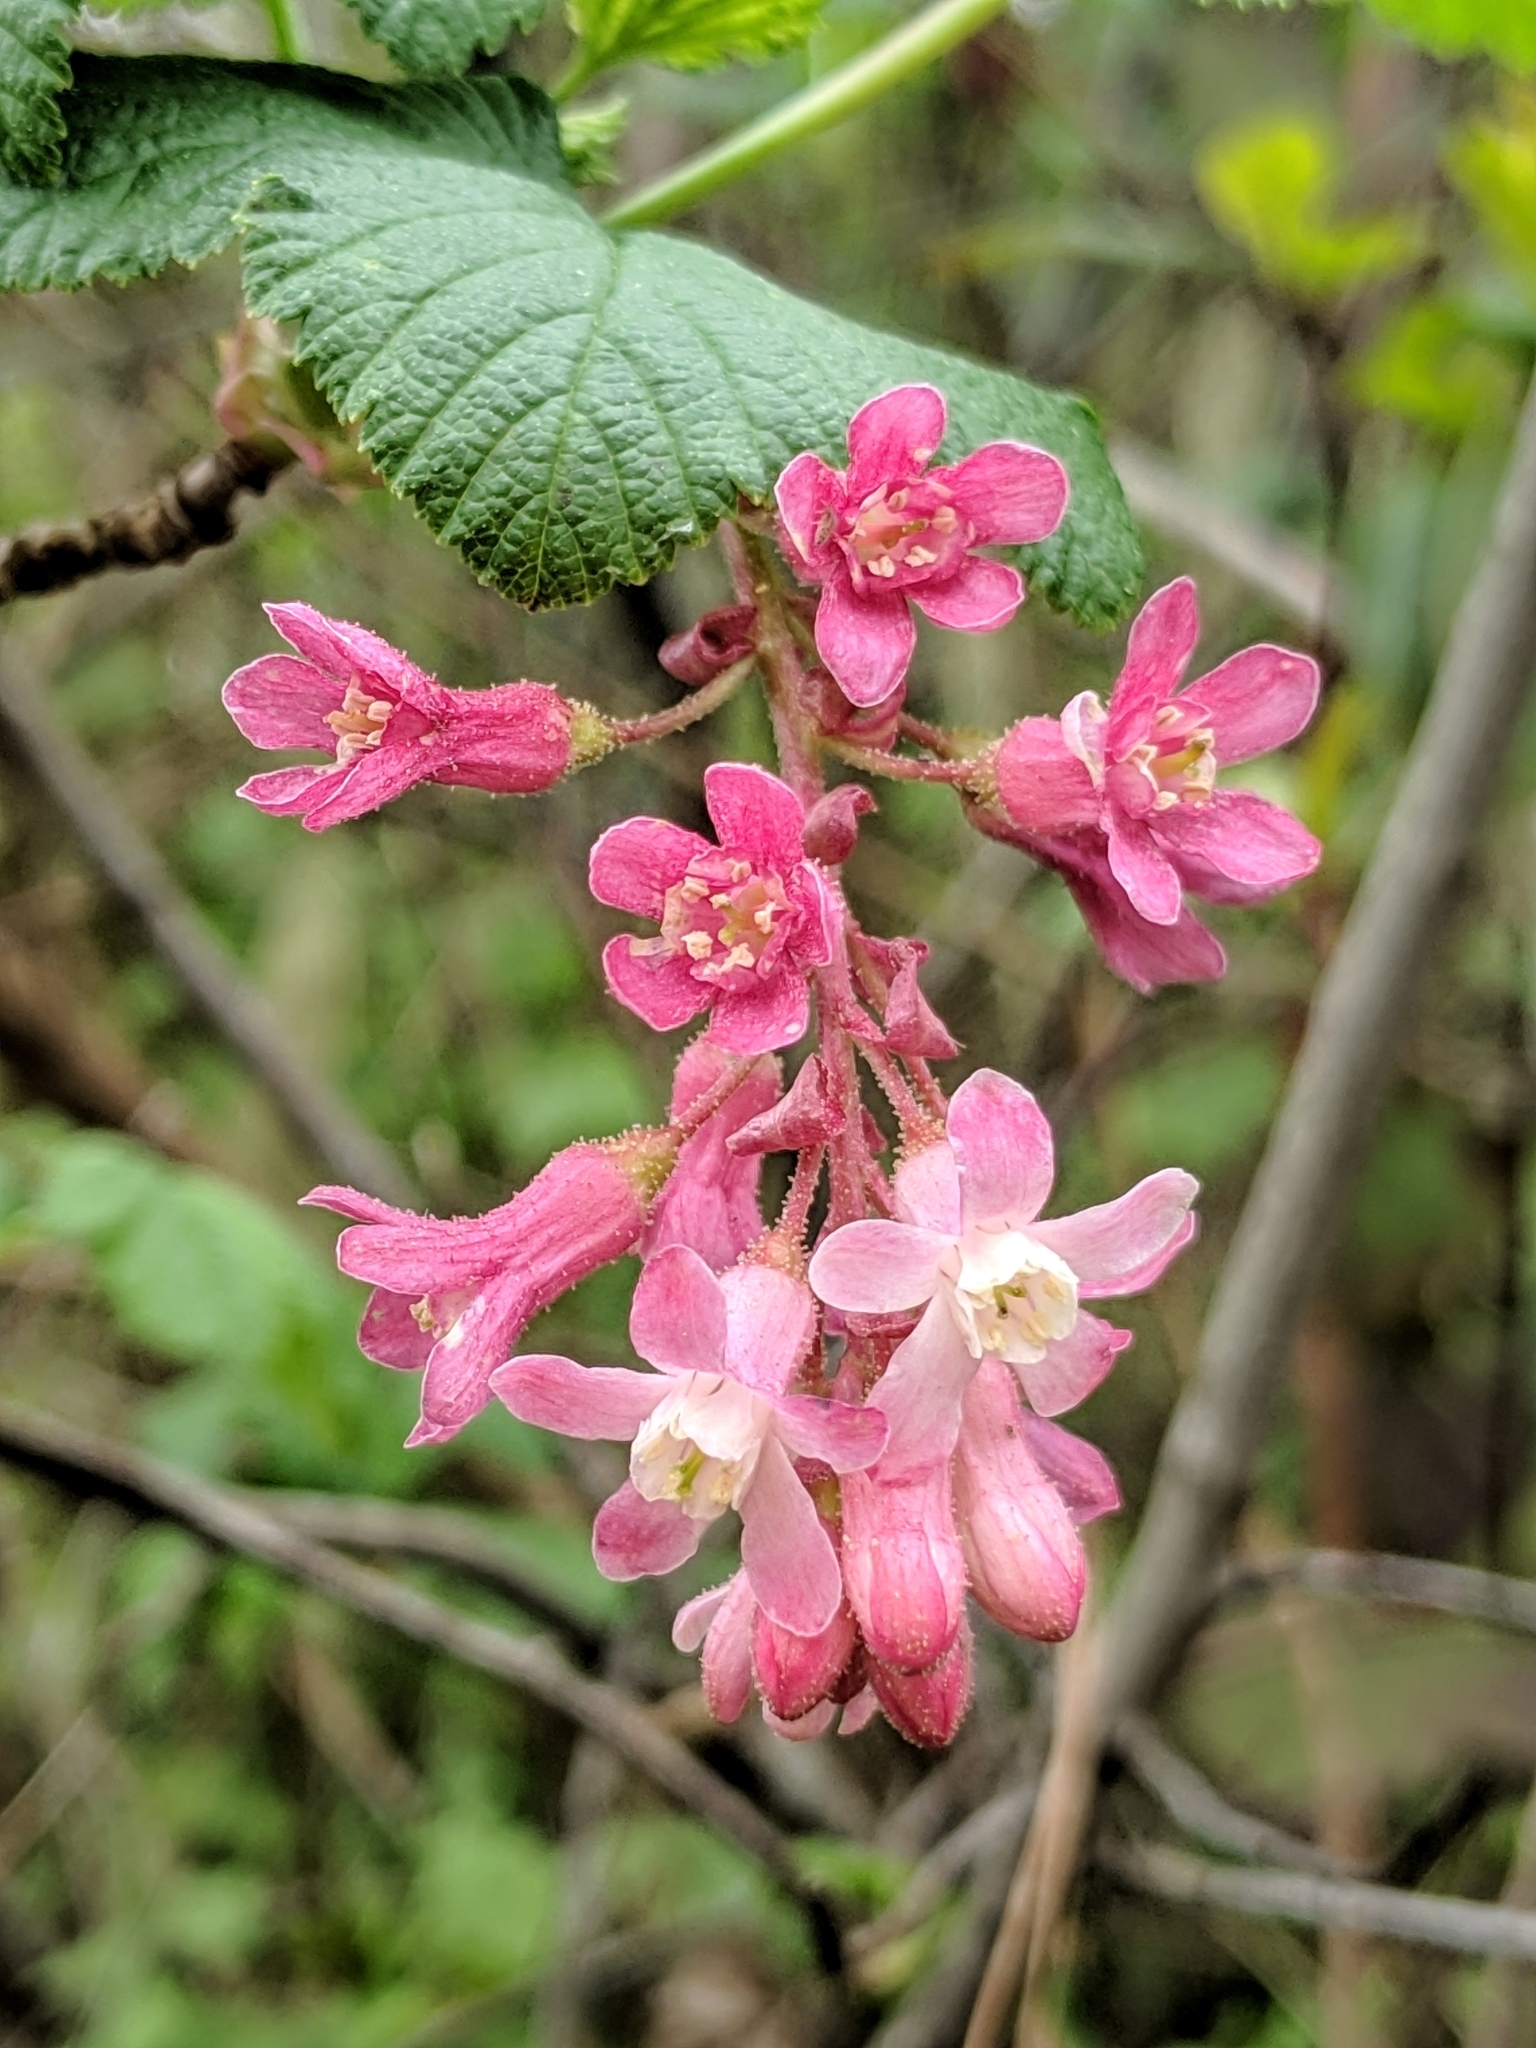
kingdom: Plantae
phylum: Tracheophyta
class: Magnoliopsida
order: Saxifragales
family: Grossulariaceae
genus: Ribes
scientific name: Ribes sanguineum
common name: Flowering currant
